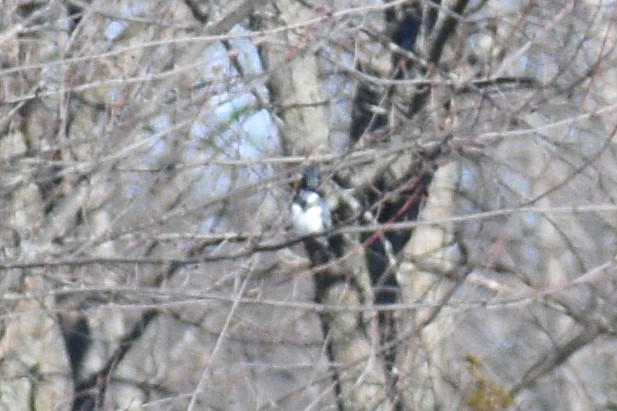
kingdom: Animalia
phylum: Chordata
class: Aves
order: Coraciiformes
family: Alcedinidae
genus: Megaceryle
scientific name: Megaceryle alcyon
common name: Belted kingfisher
